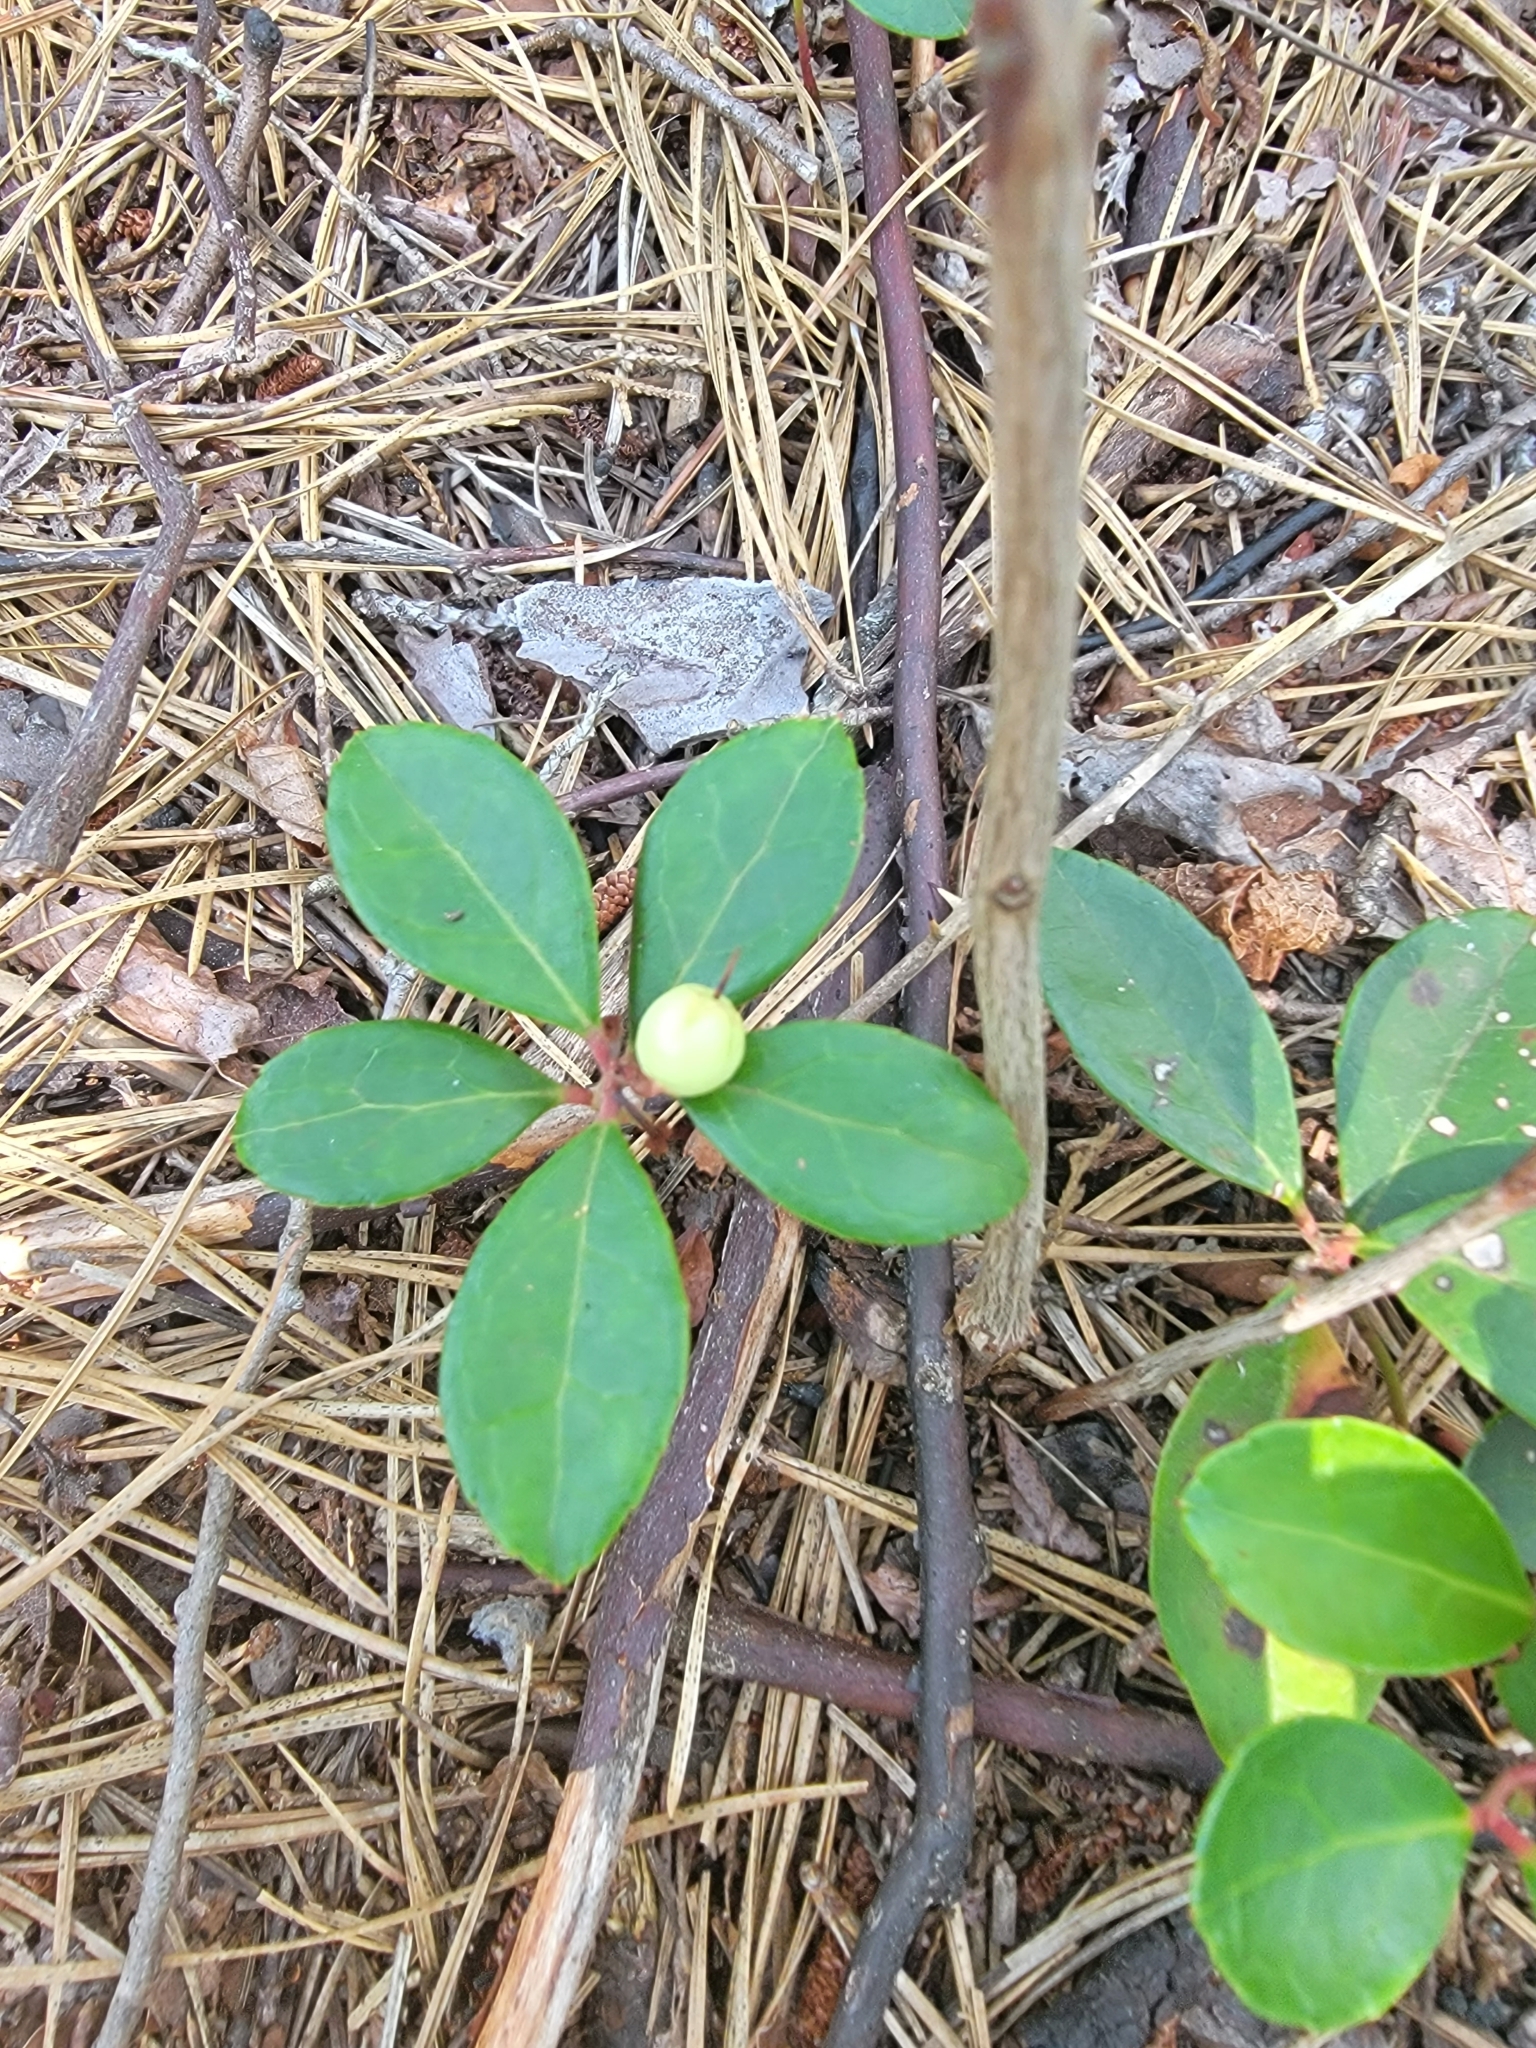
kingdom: Plantae
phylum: Tracheophyta
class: Magnoliopsida
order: Ericales
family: Ericaceae
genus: Gaultheria
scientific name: Gaultheria procumbens
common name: Checkerberry
